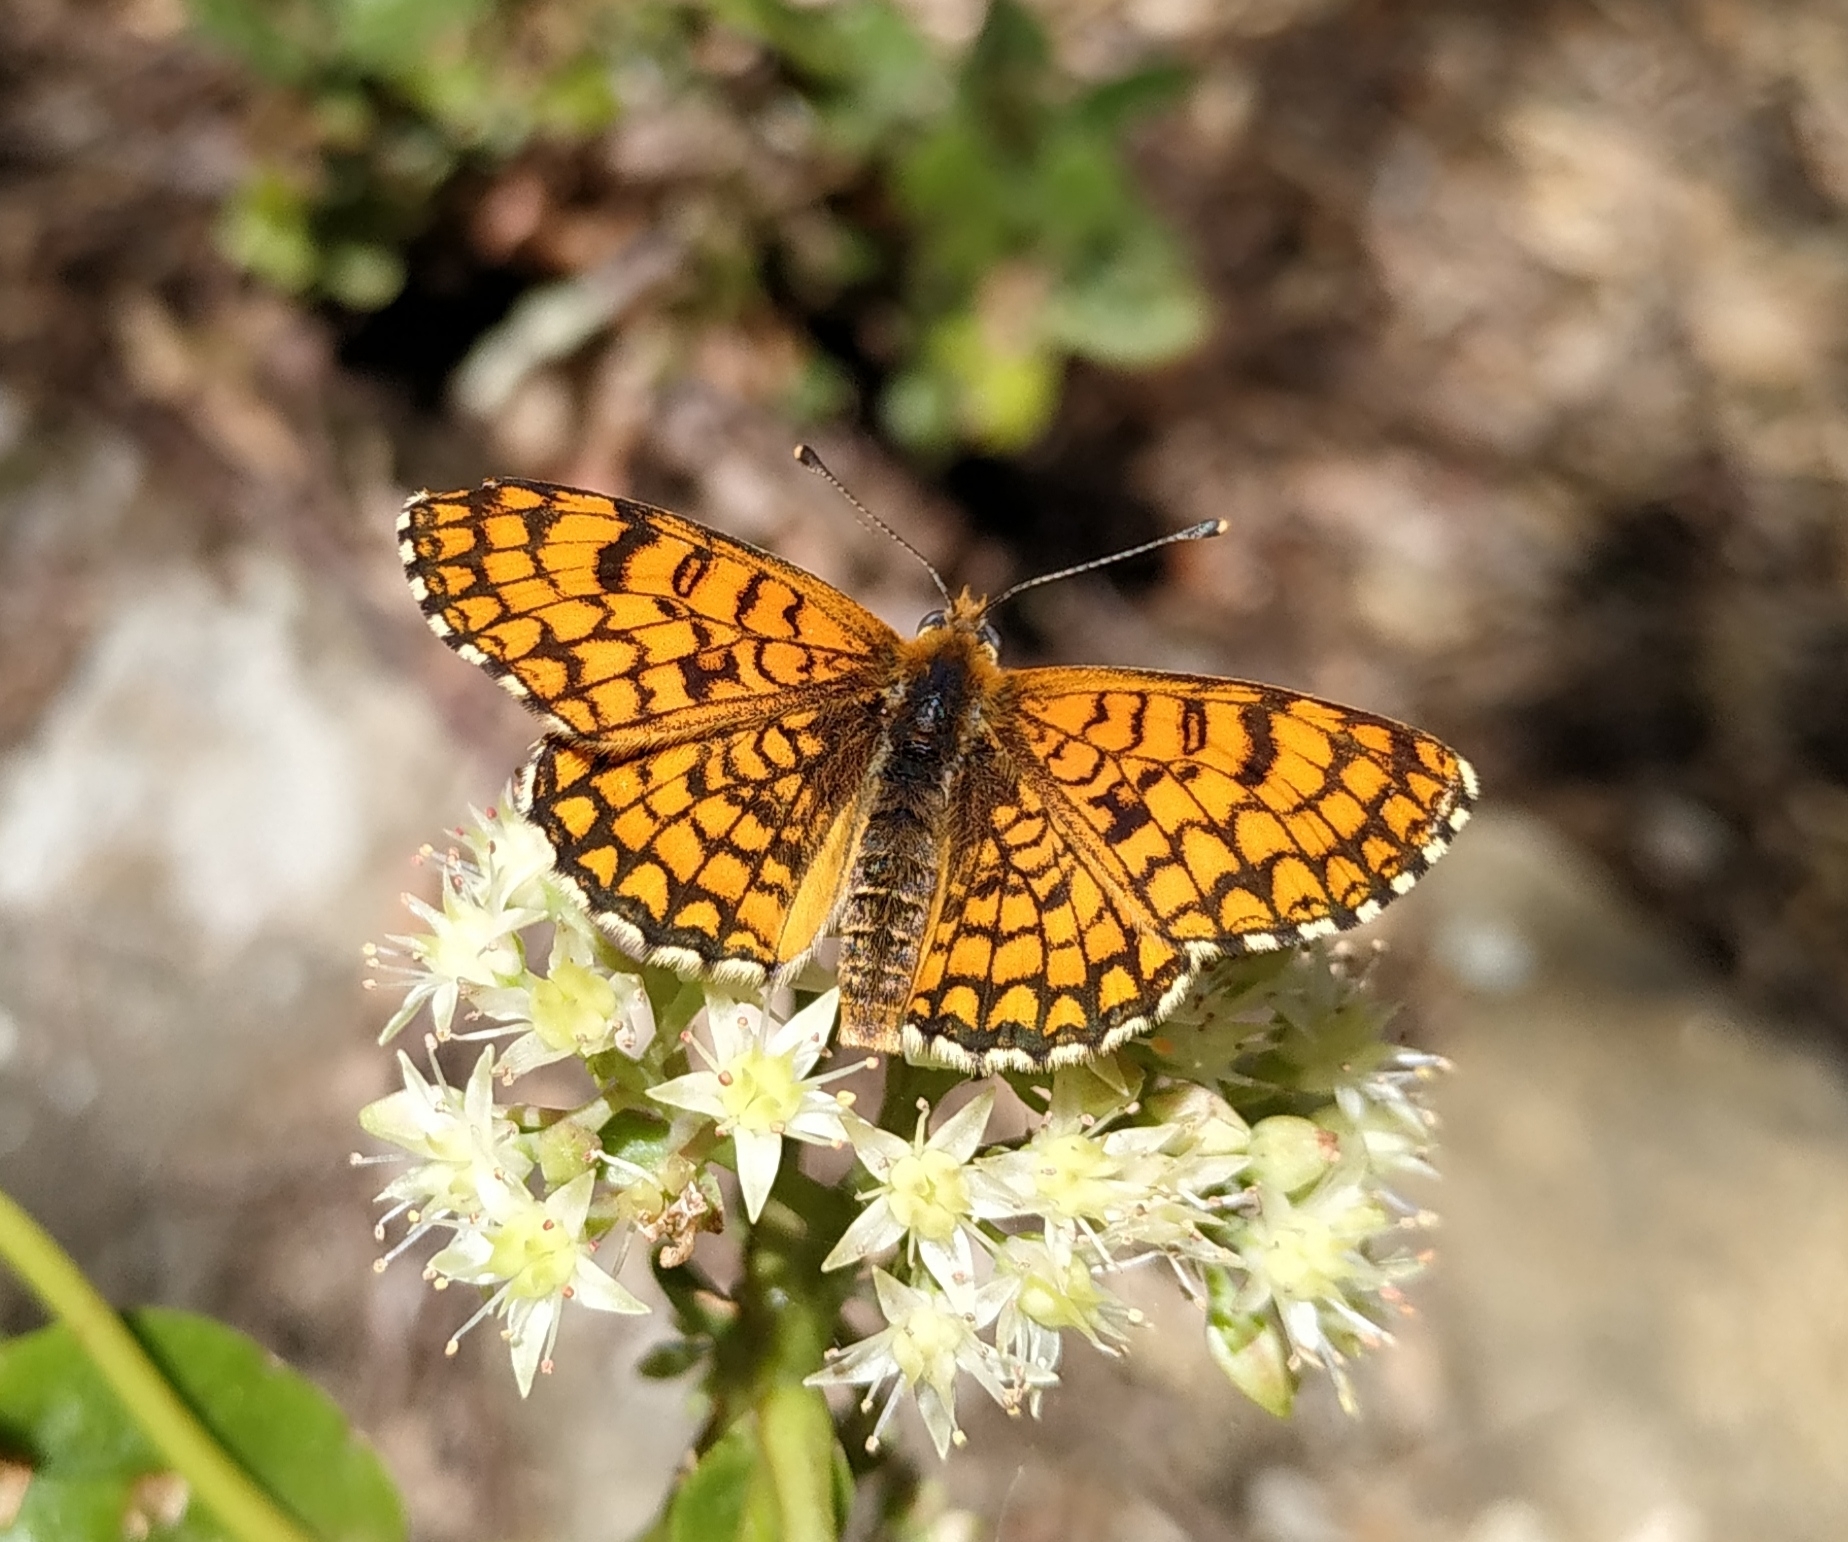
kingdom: Animalia
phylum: Arthropoda
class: Insecta
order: Lepidoptera
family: Nymphalidae
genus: Melitaea
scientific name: Melitaea deione
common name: Provençal fritillary
